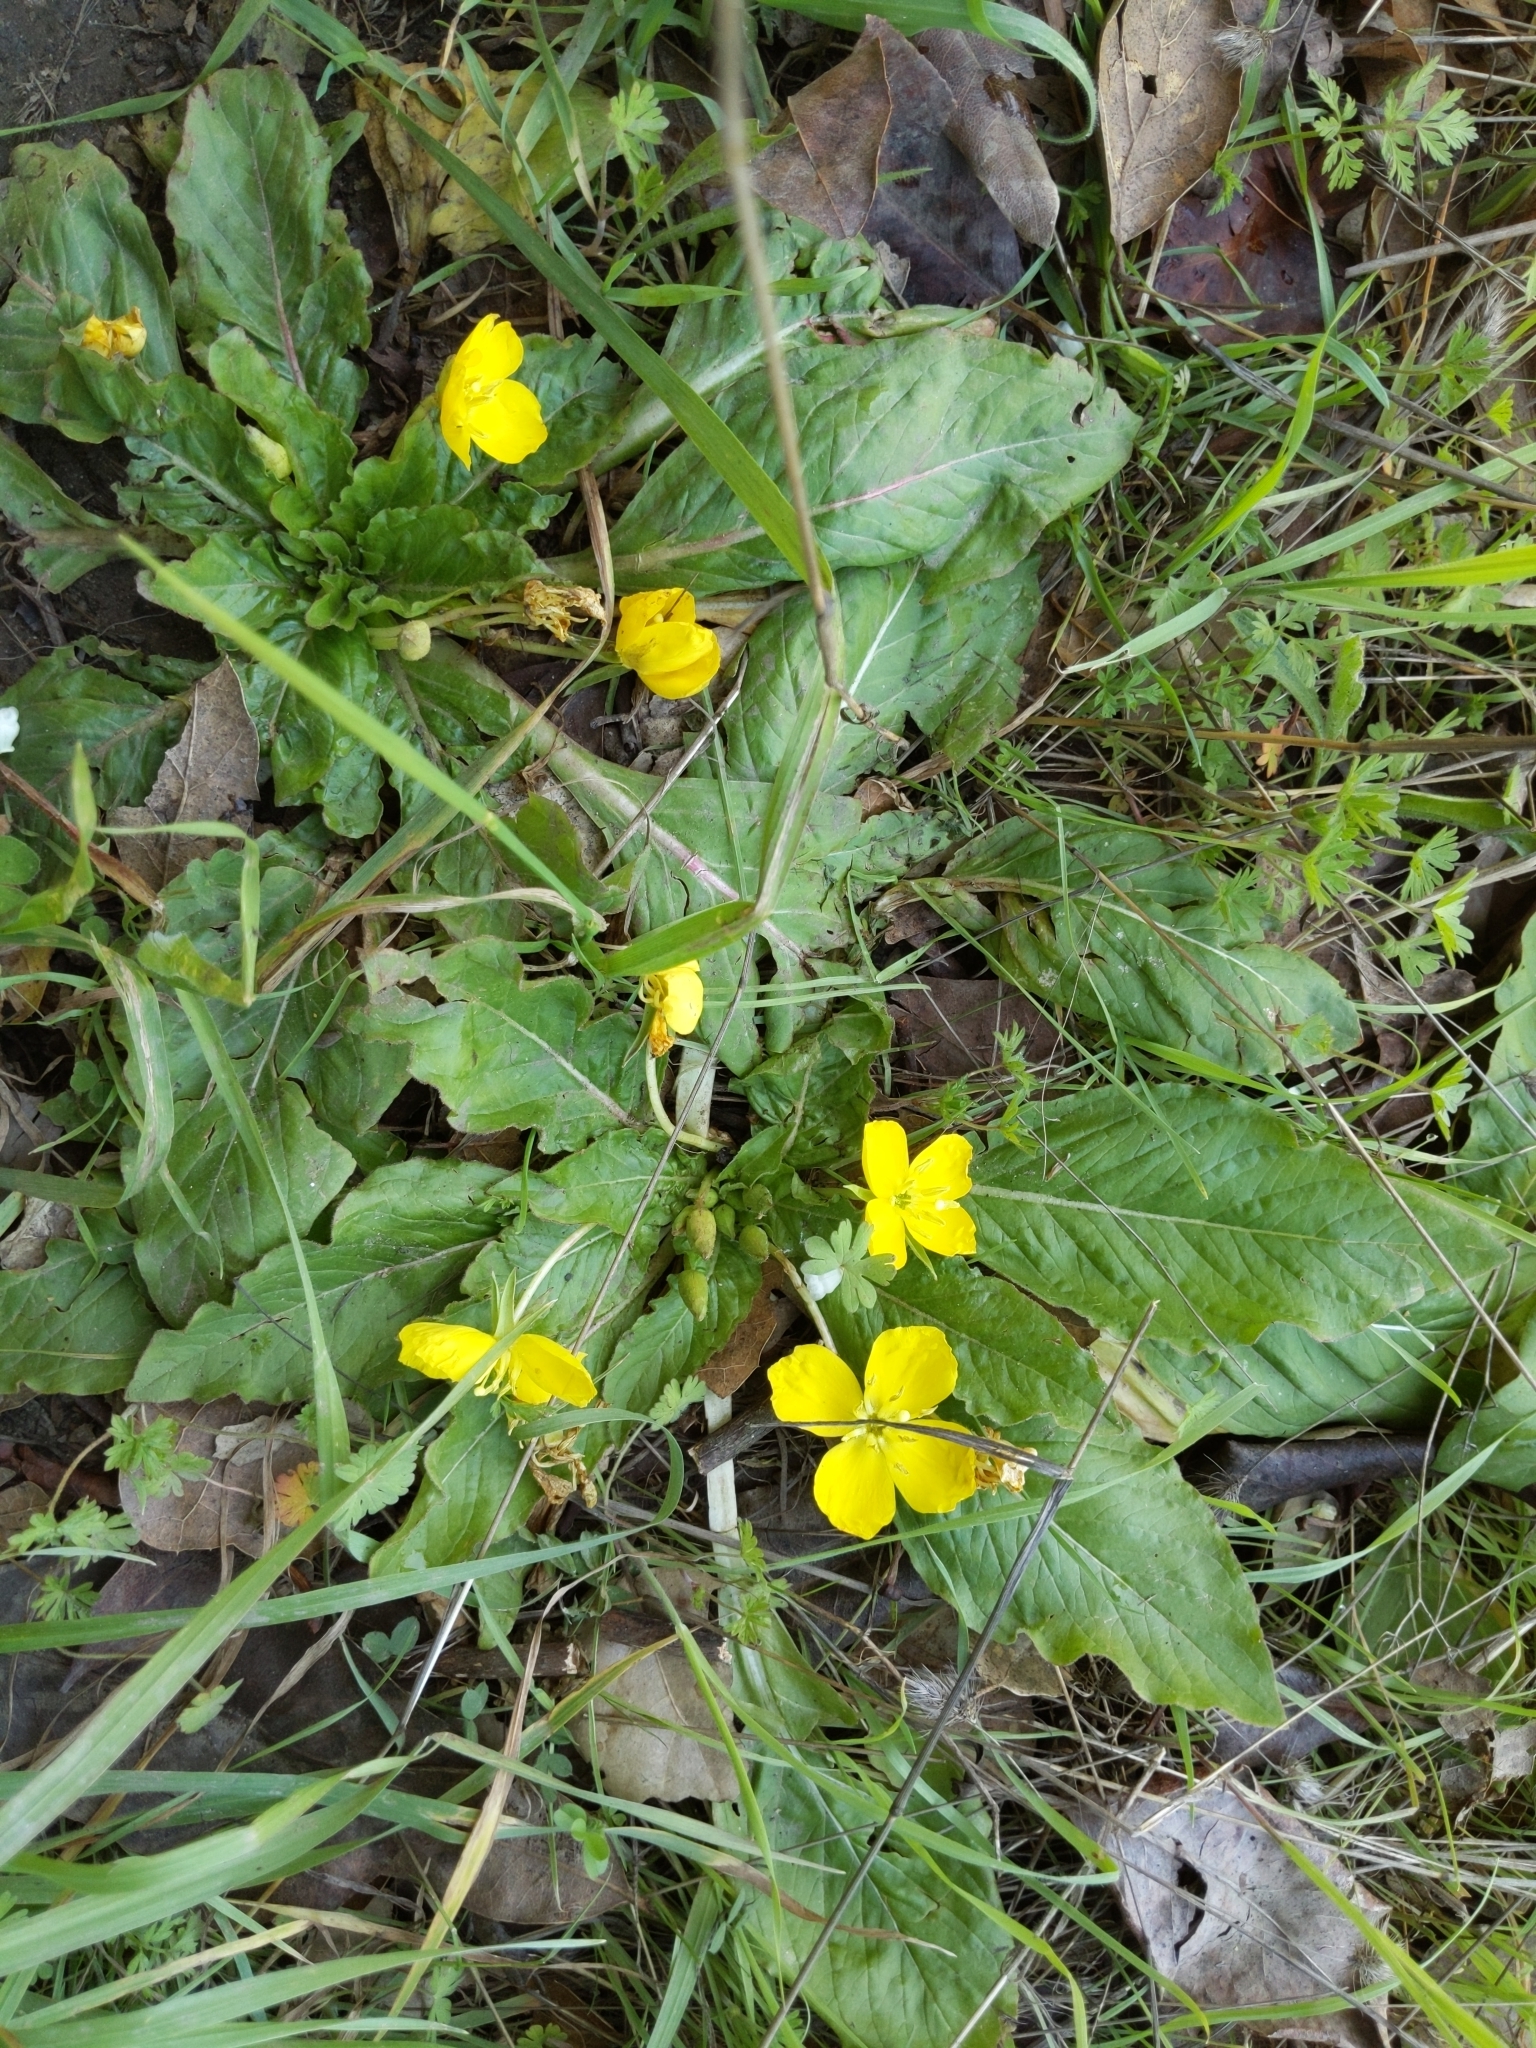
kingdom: Plantae
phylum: Tracheophyta
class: Magnoliopsida
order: Myrtales
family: Onagraceae
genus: Taraxia
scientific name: Taraxia ovata
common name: Goldeneggs
